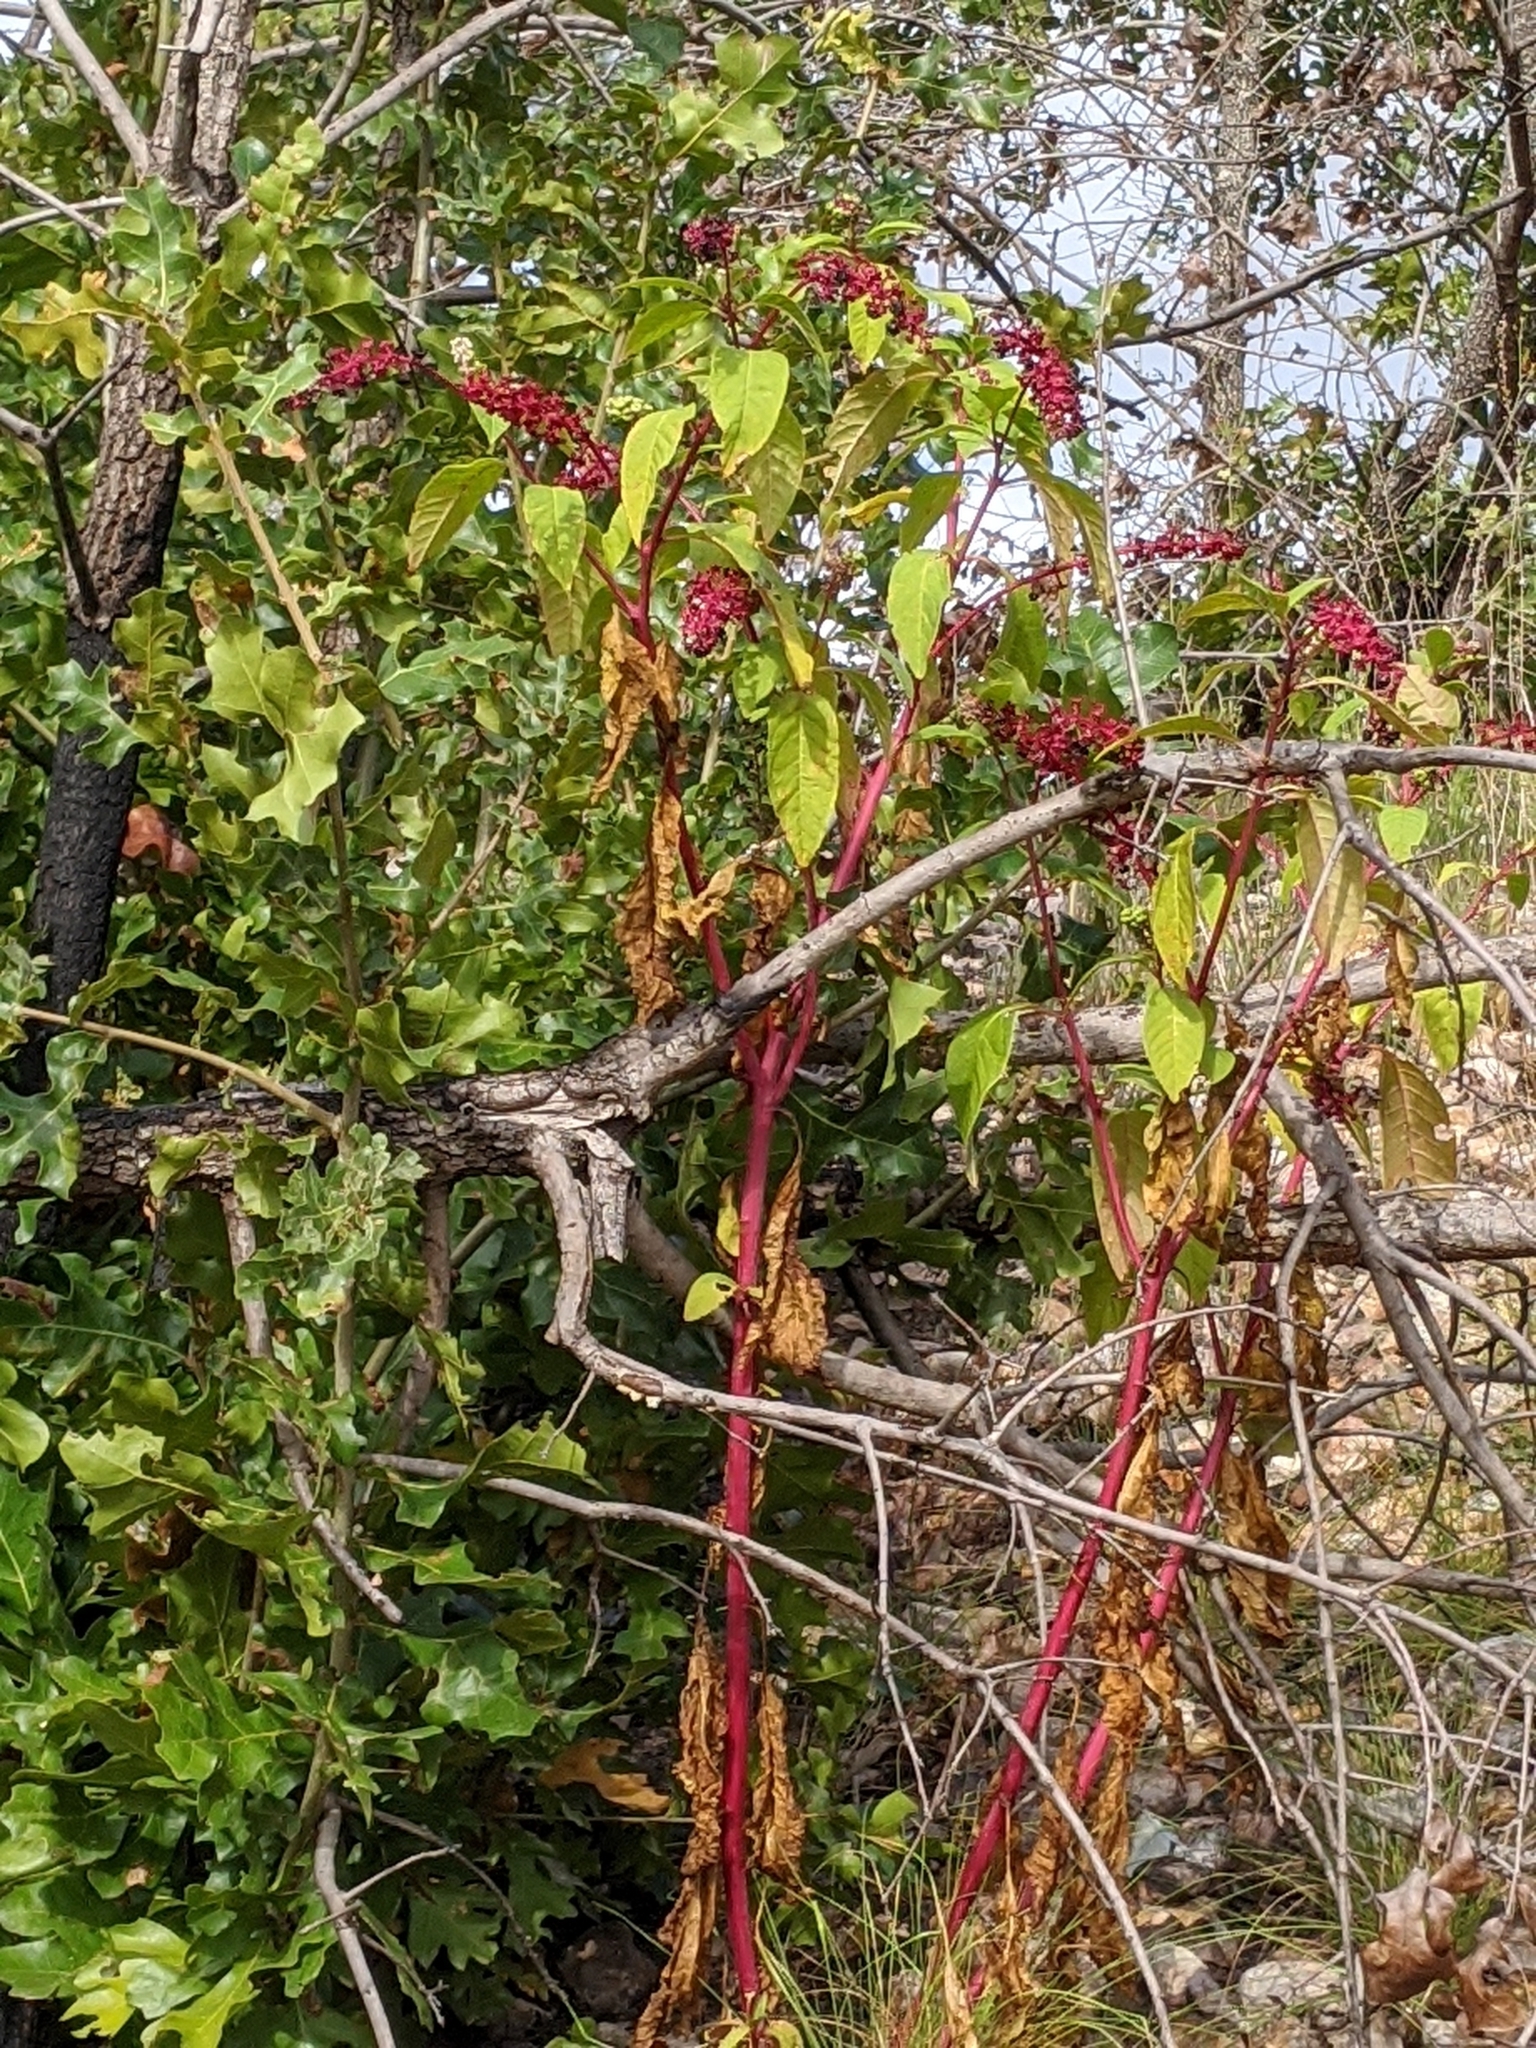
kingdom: Plantae
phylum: Tracheophyta
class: Magnoliopsida
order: Caryophyllales
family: Phytolaccaceae
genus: Phytolacca
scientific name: Phytolacca americana
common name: American pokeweed
